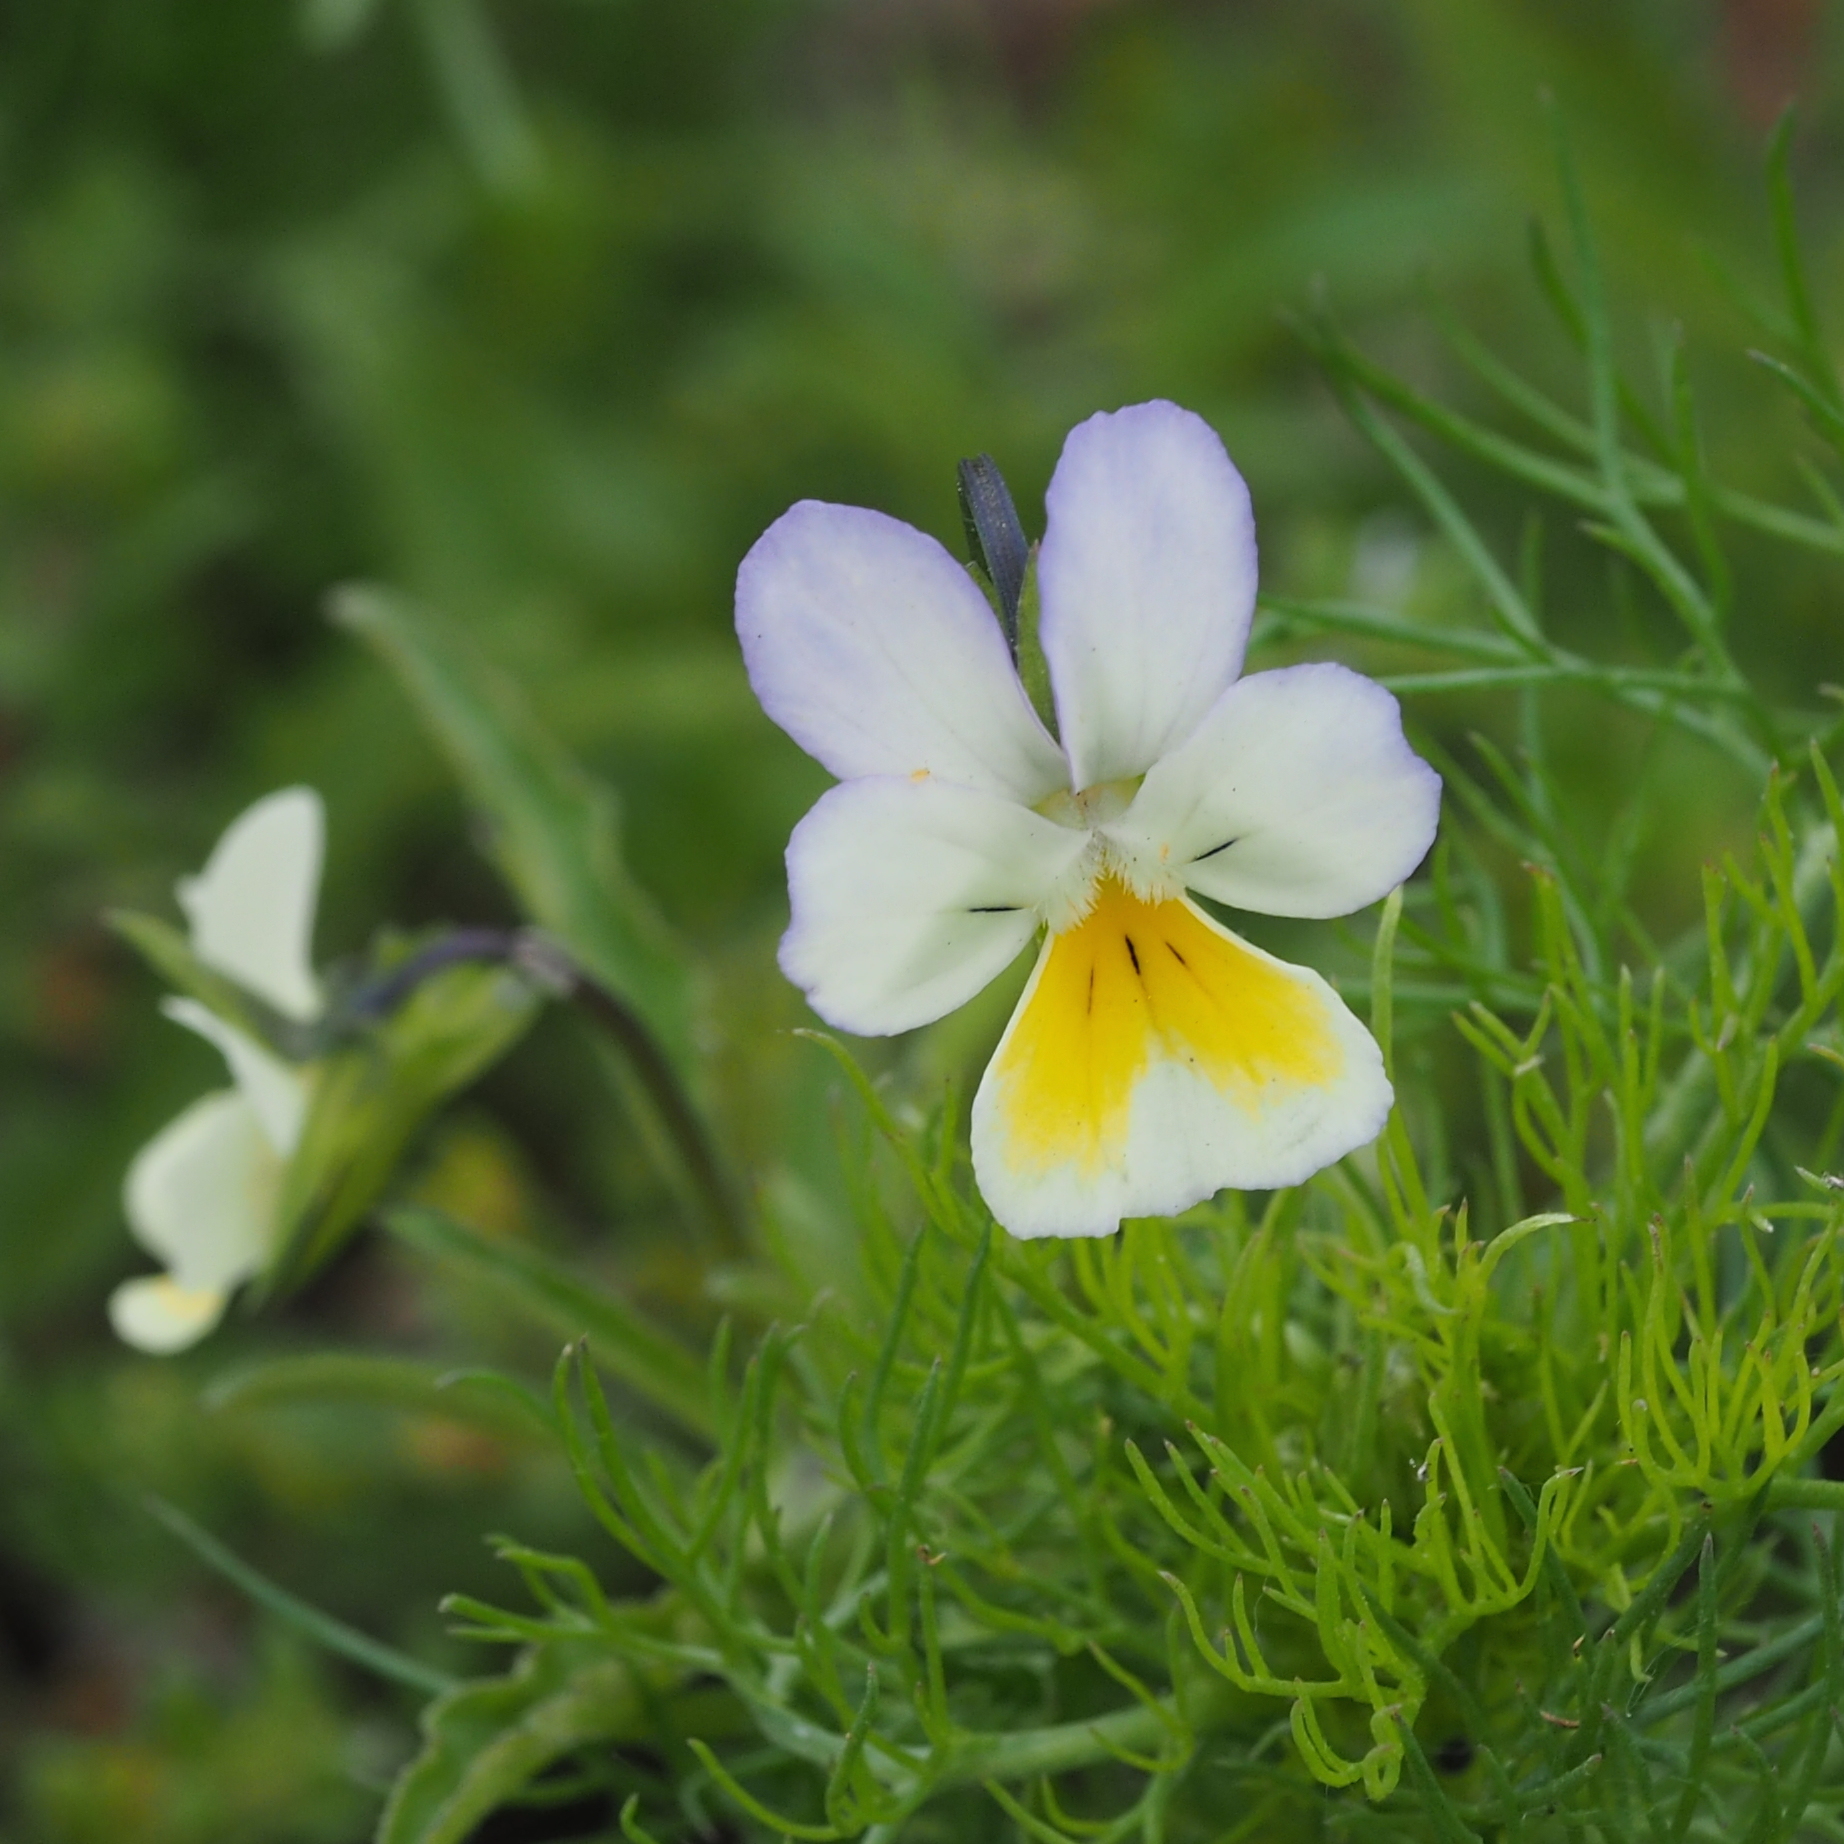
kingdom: Plantae
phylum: Tracheophyta
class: Magnoliopsida
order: Malpighiales
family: Violaceae
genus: Viola
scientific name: Viola arvensis
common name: Field pansy
